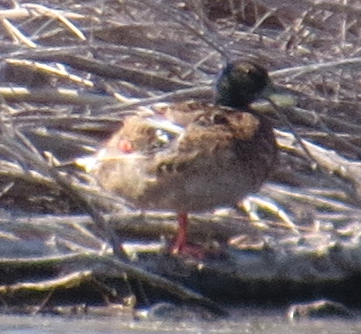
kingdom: Animalia
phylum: Chordata
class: Aves
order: Anseriformes
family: Anatidae
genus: Anas
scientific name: Anas platyrhynchos
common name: Mallard
